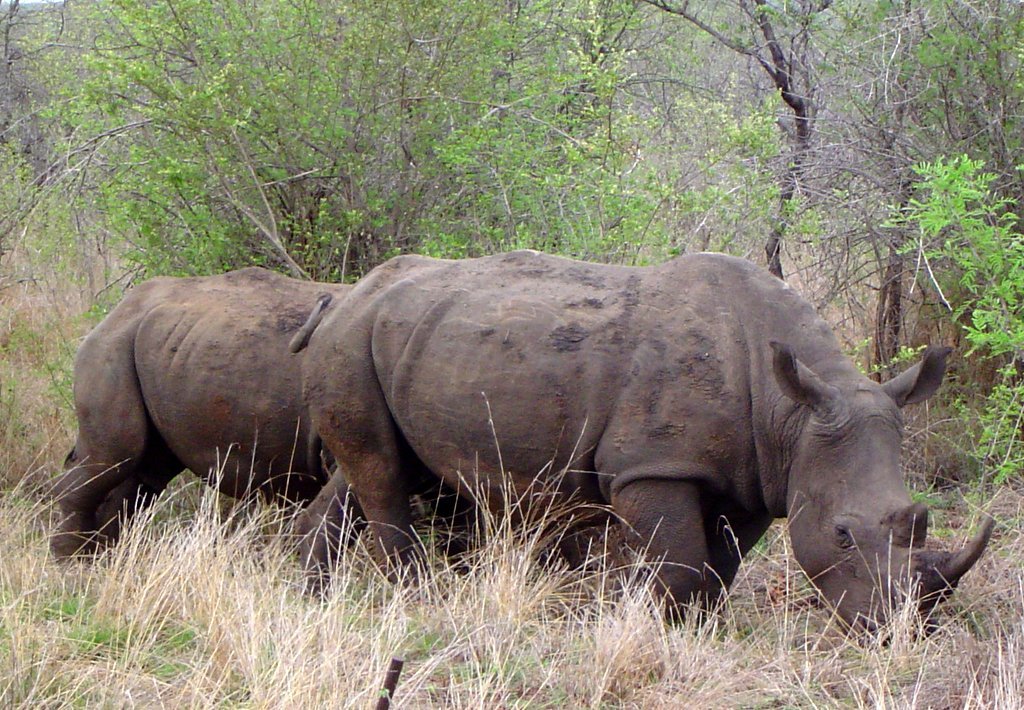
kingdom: Animalia
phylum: Chordata
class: Mammalia
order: Perissodactyla
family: Rhinocerotidae
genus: Ceratotherium
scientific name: Ceratotherium simum
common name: White rhinoceros
